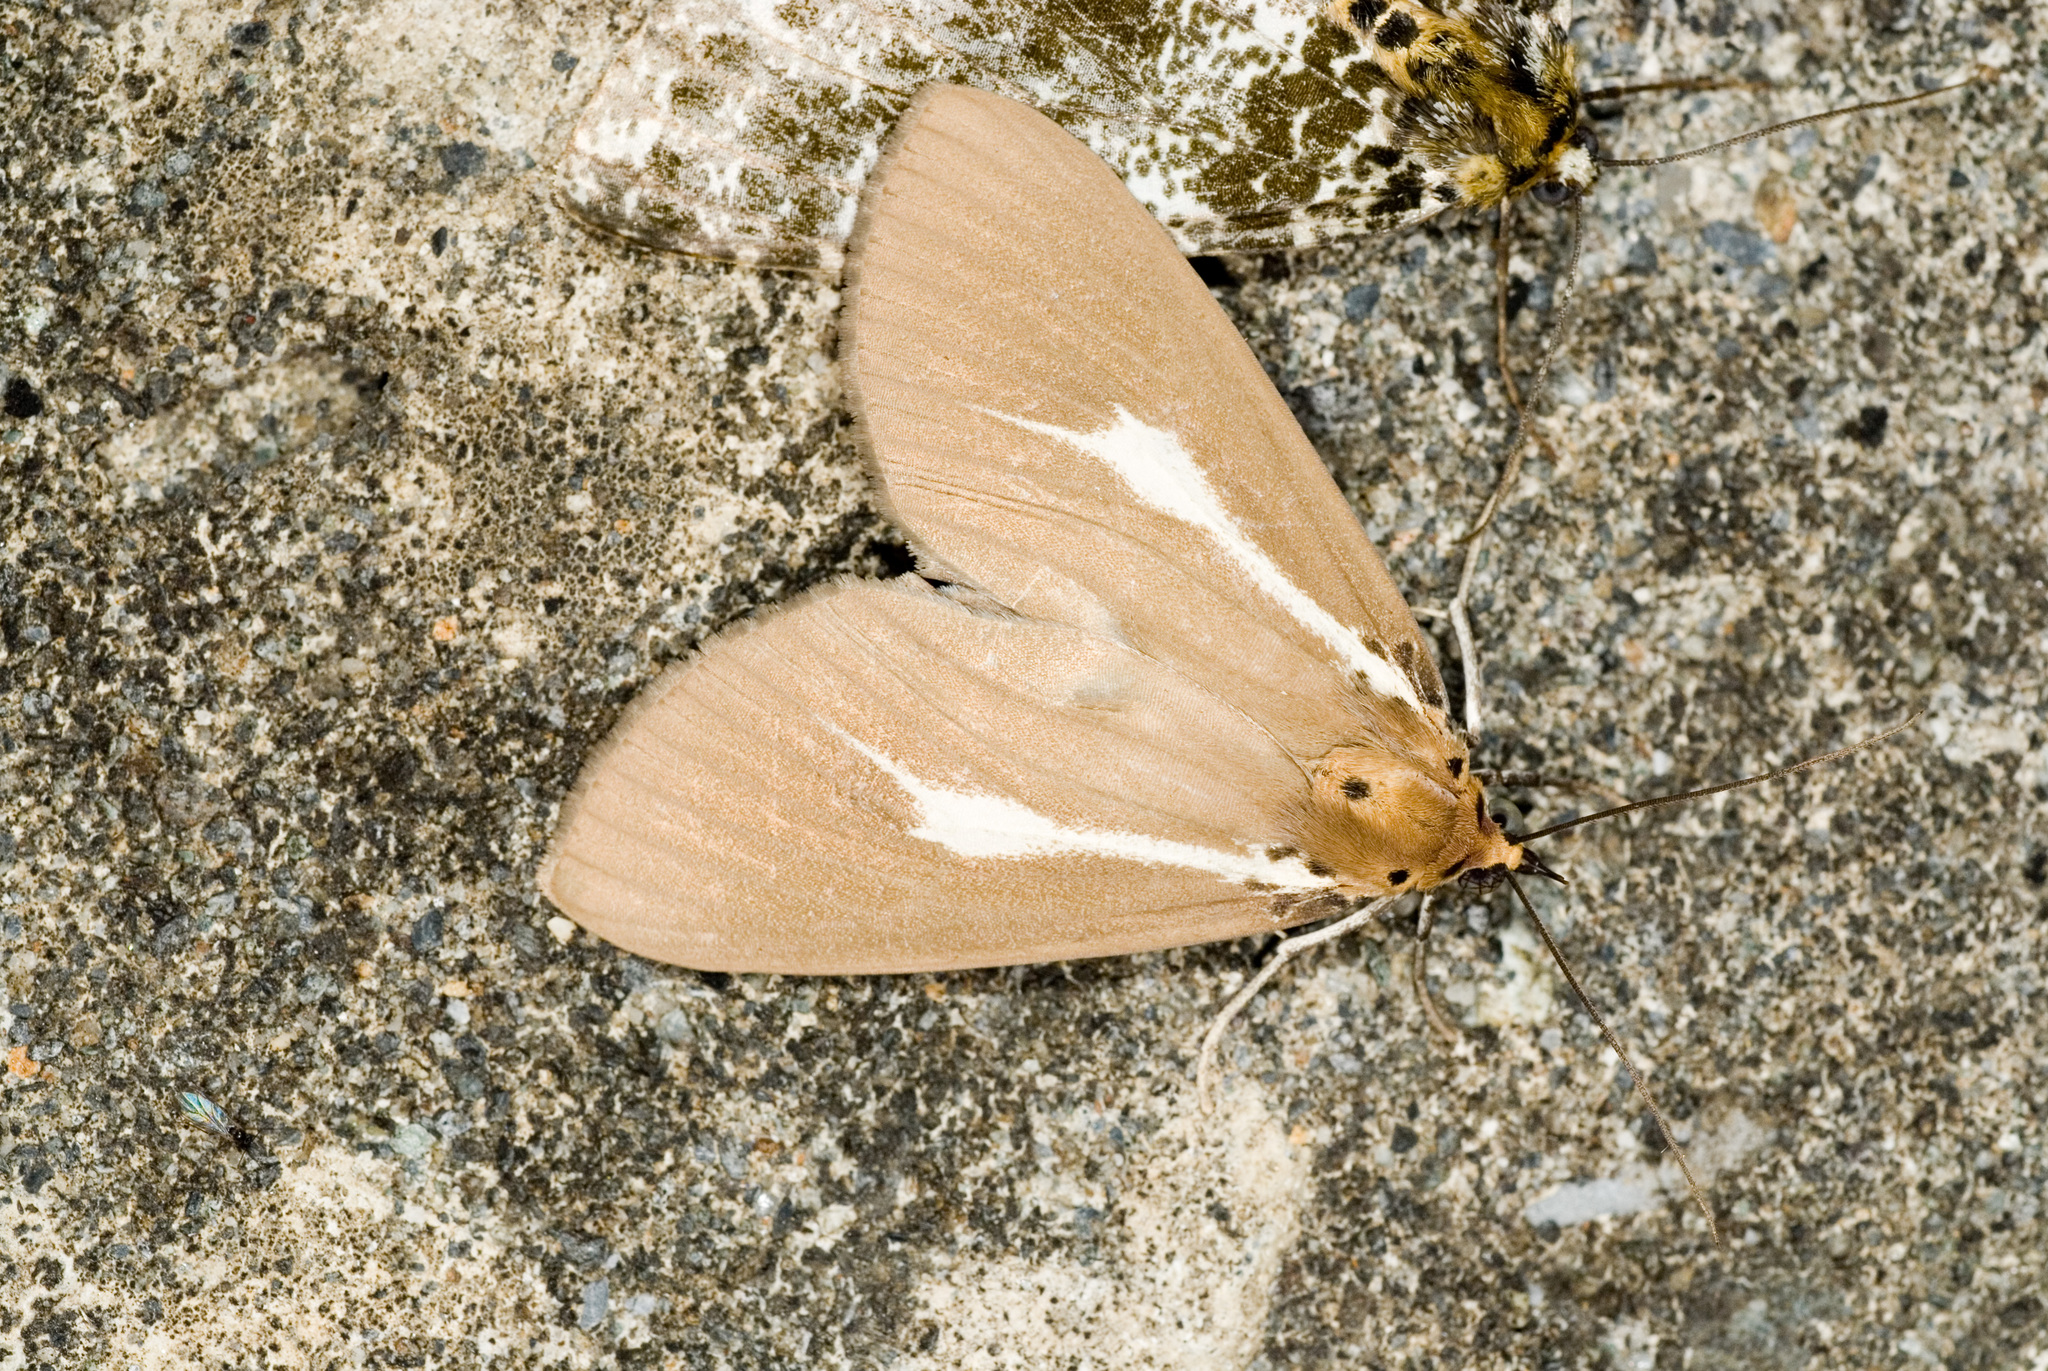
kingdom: Animalia
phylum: Arthropoda
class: Insecta
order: Lepidoptera
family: Erebidae
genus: Asota
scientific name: Asota heliconia
